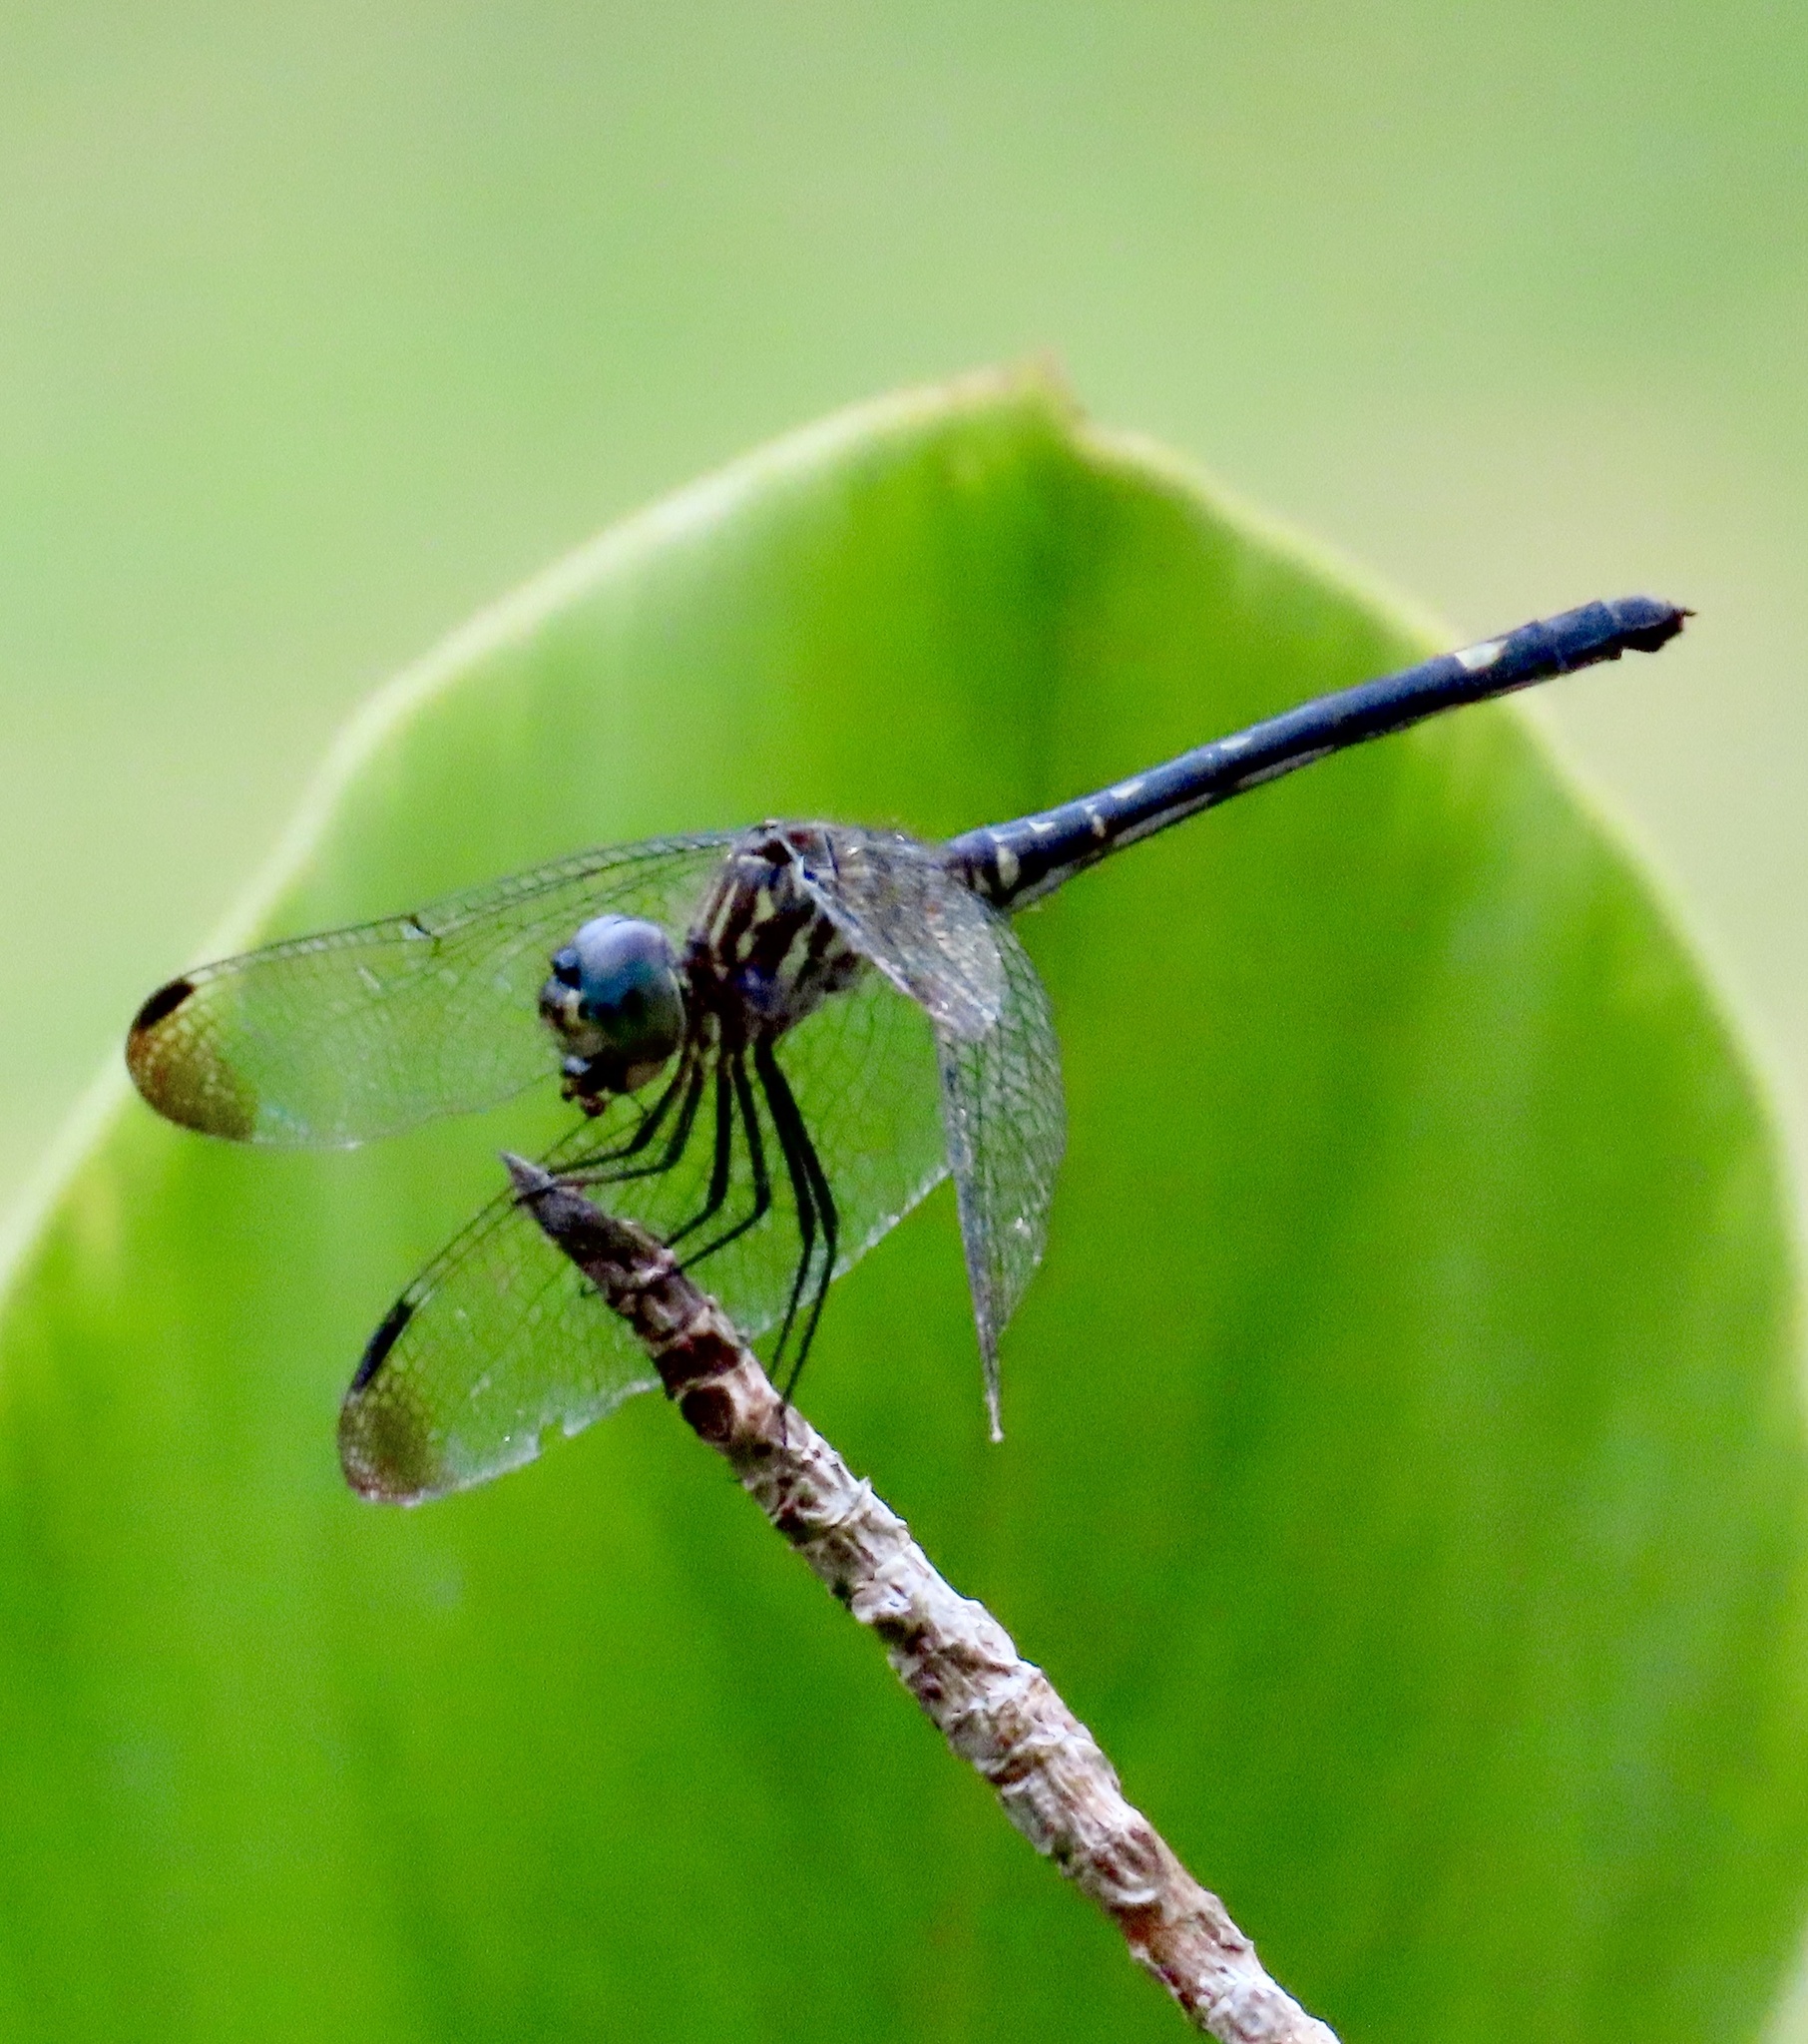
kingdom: Animalia
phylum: Arthropoda
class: Insecta
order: Odonata
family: Libellulidae
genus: Dythemis
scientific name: Dythemis nigra
